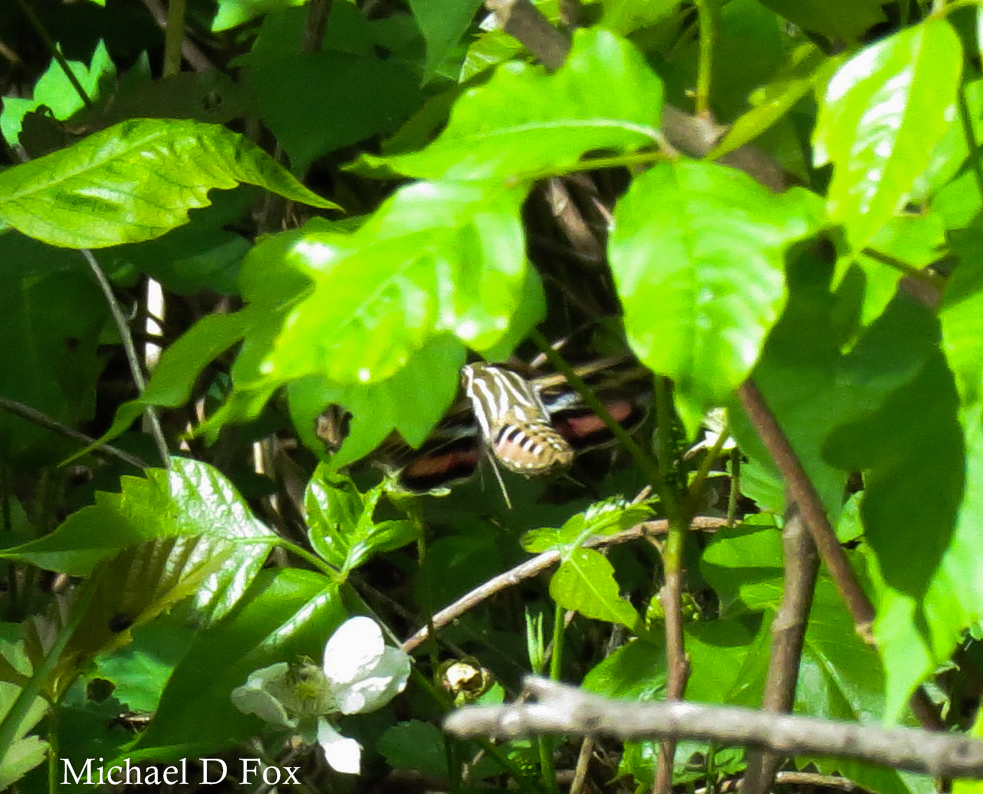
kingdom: Animalia
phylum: Arthropoda
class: Insecta
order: Lepidoptera
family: Sphingidae
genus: Hyles
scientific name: Hyles lineata
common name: White-lined sphinx
